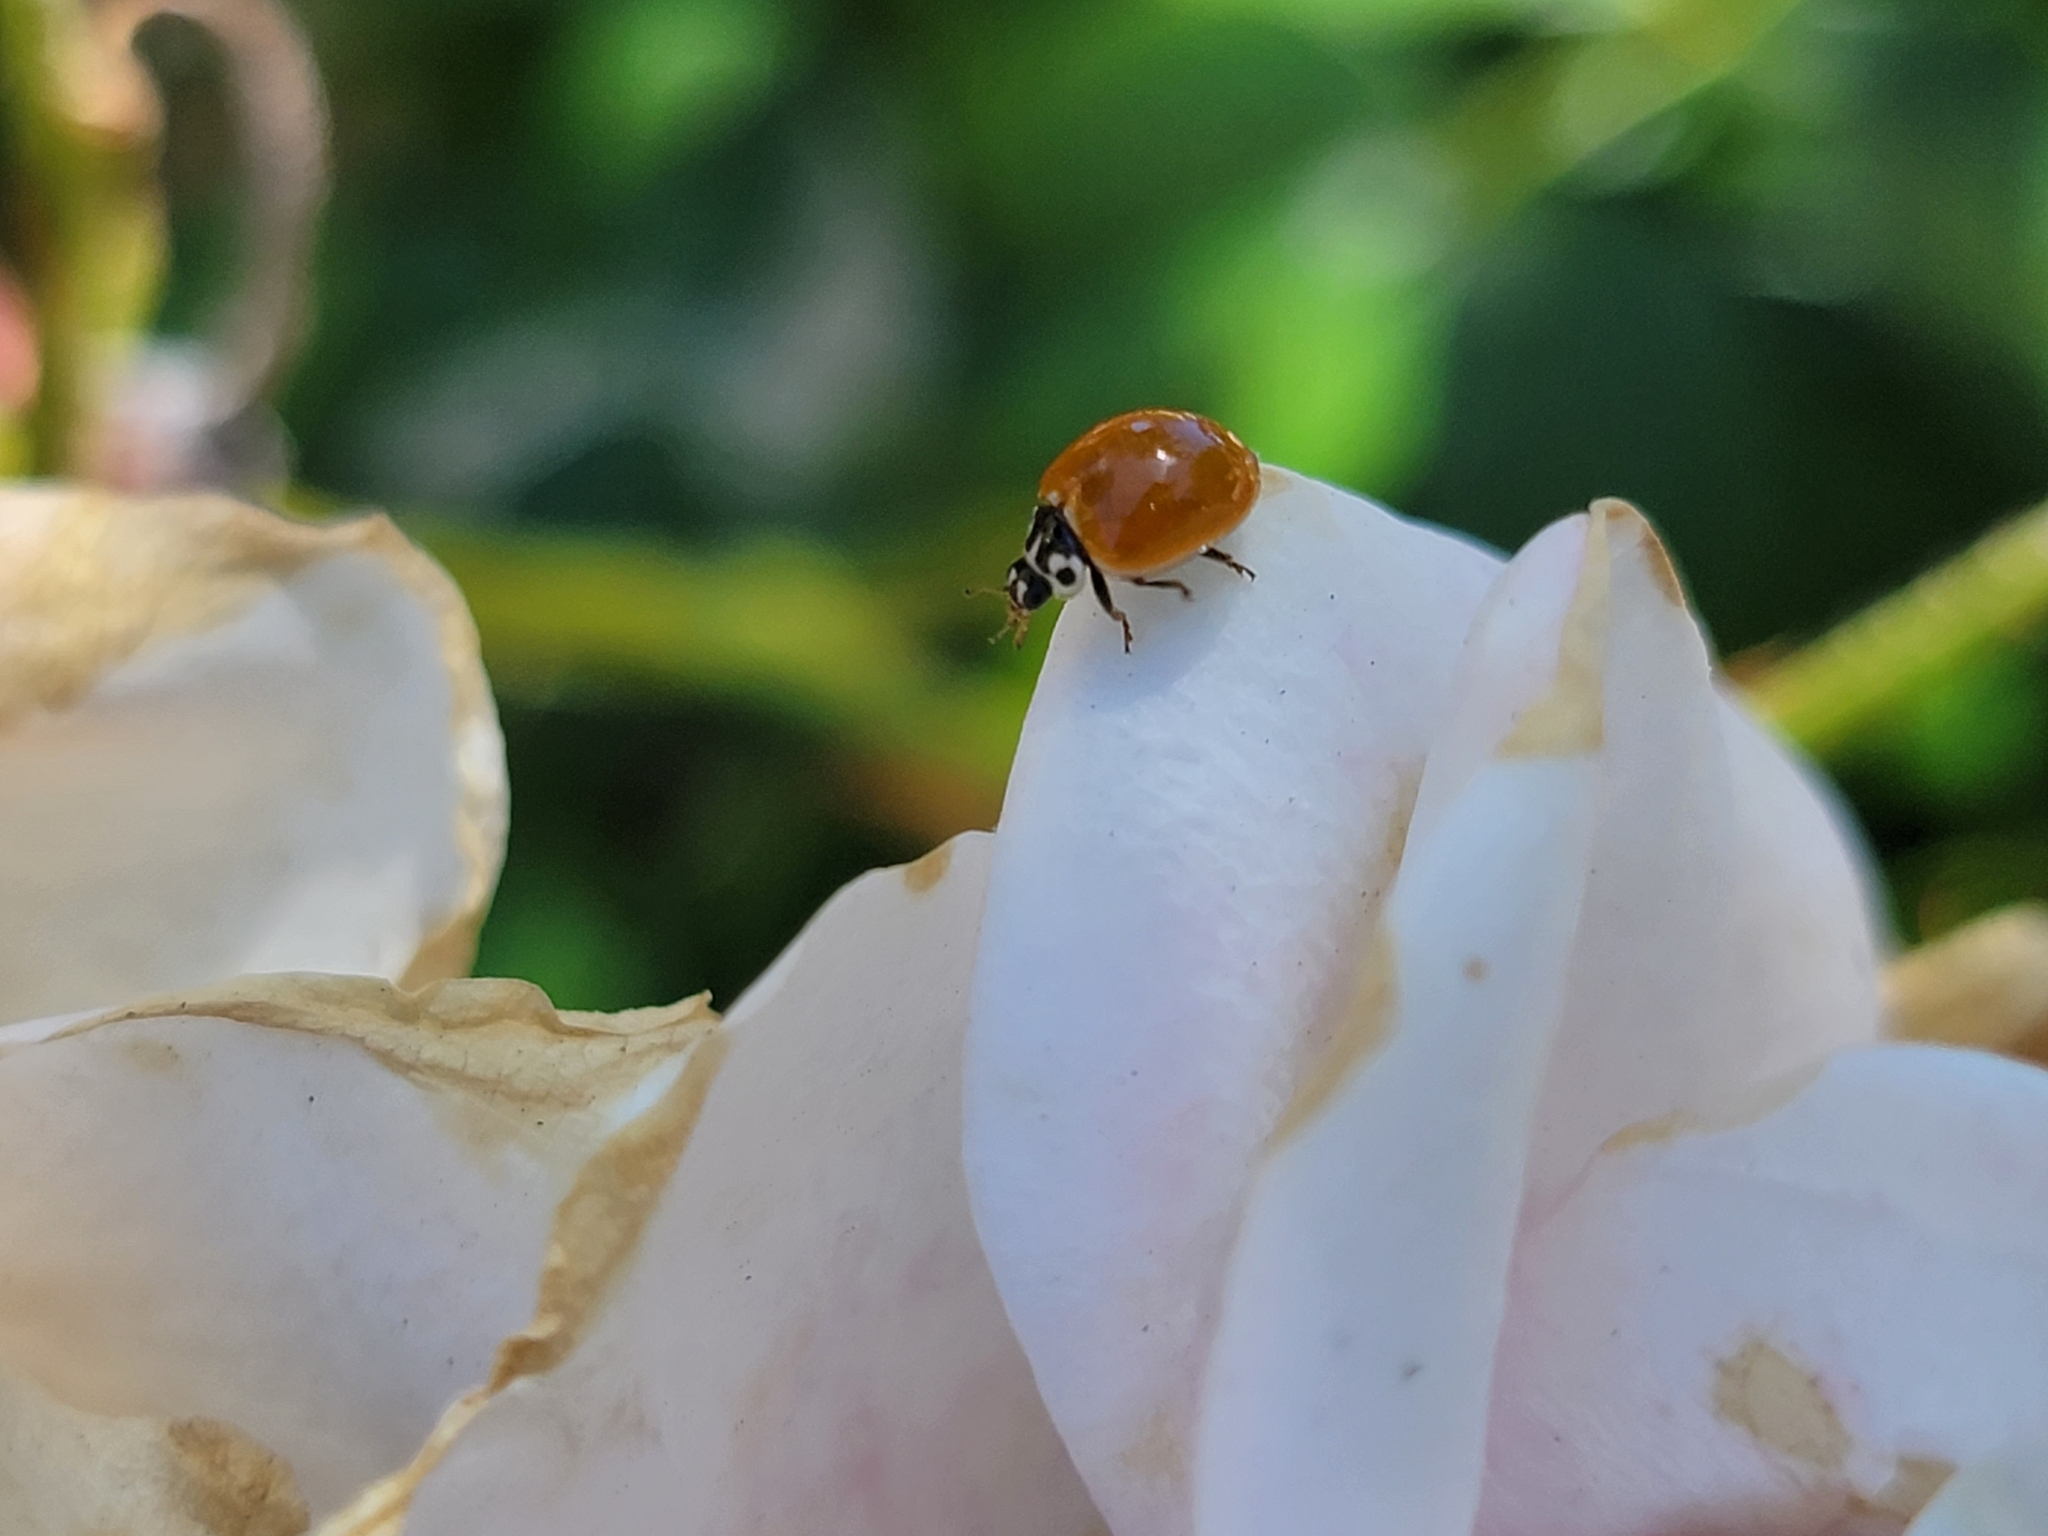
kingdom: Animalia
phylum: Arthropoda
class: Insecta
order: Coleoptera
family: Coccinellidae
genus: Cycloneda
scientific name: Cycloneda polita
